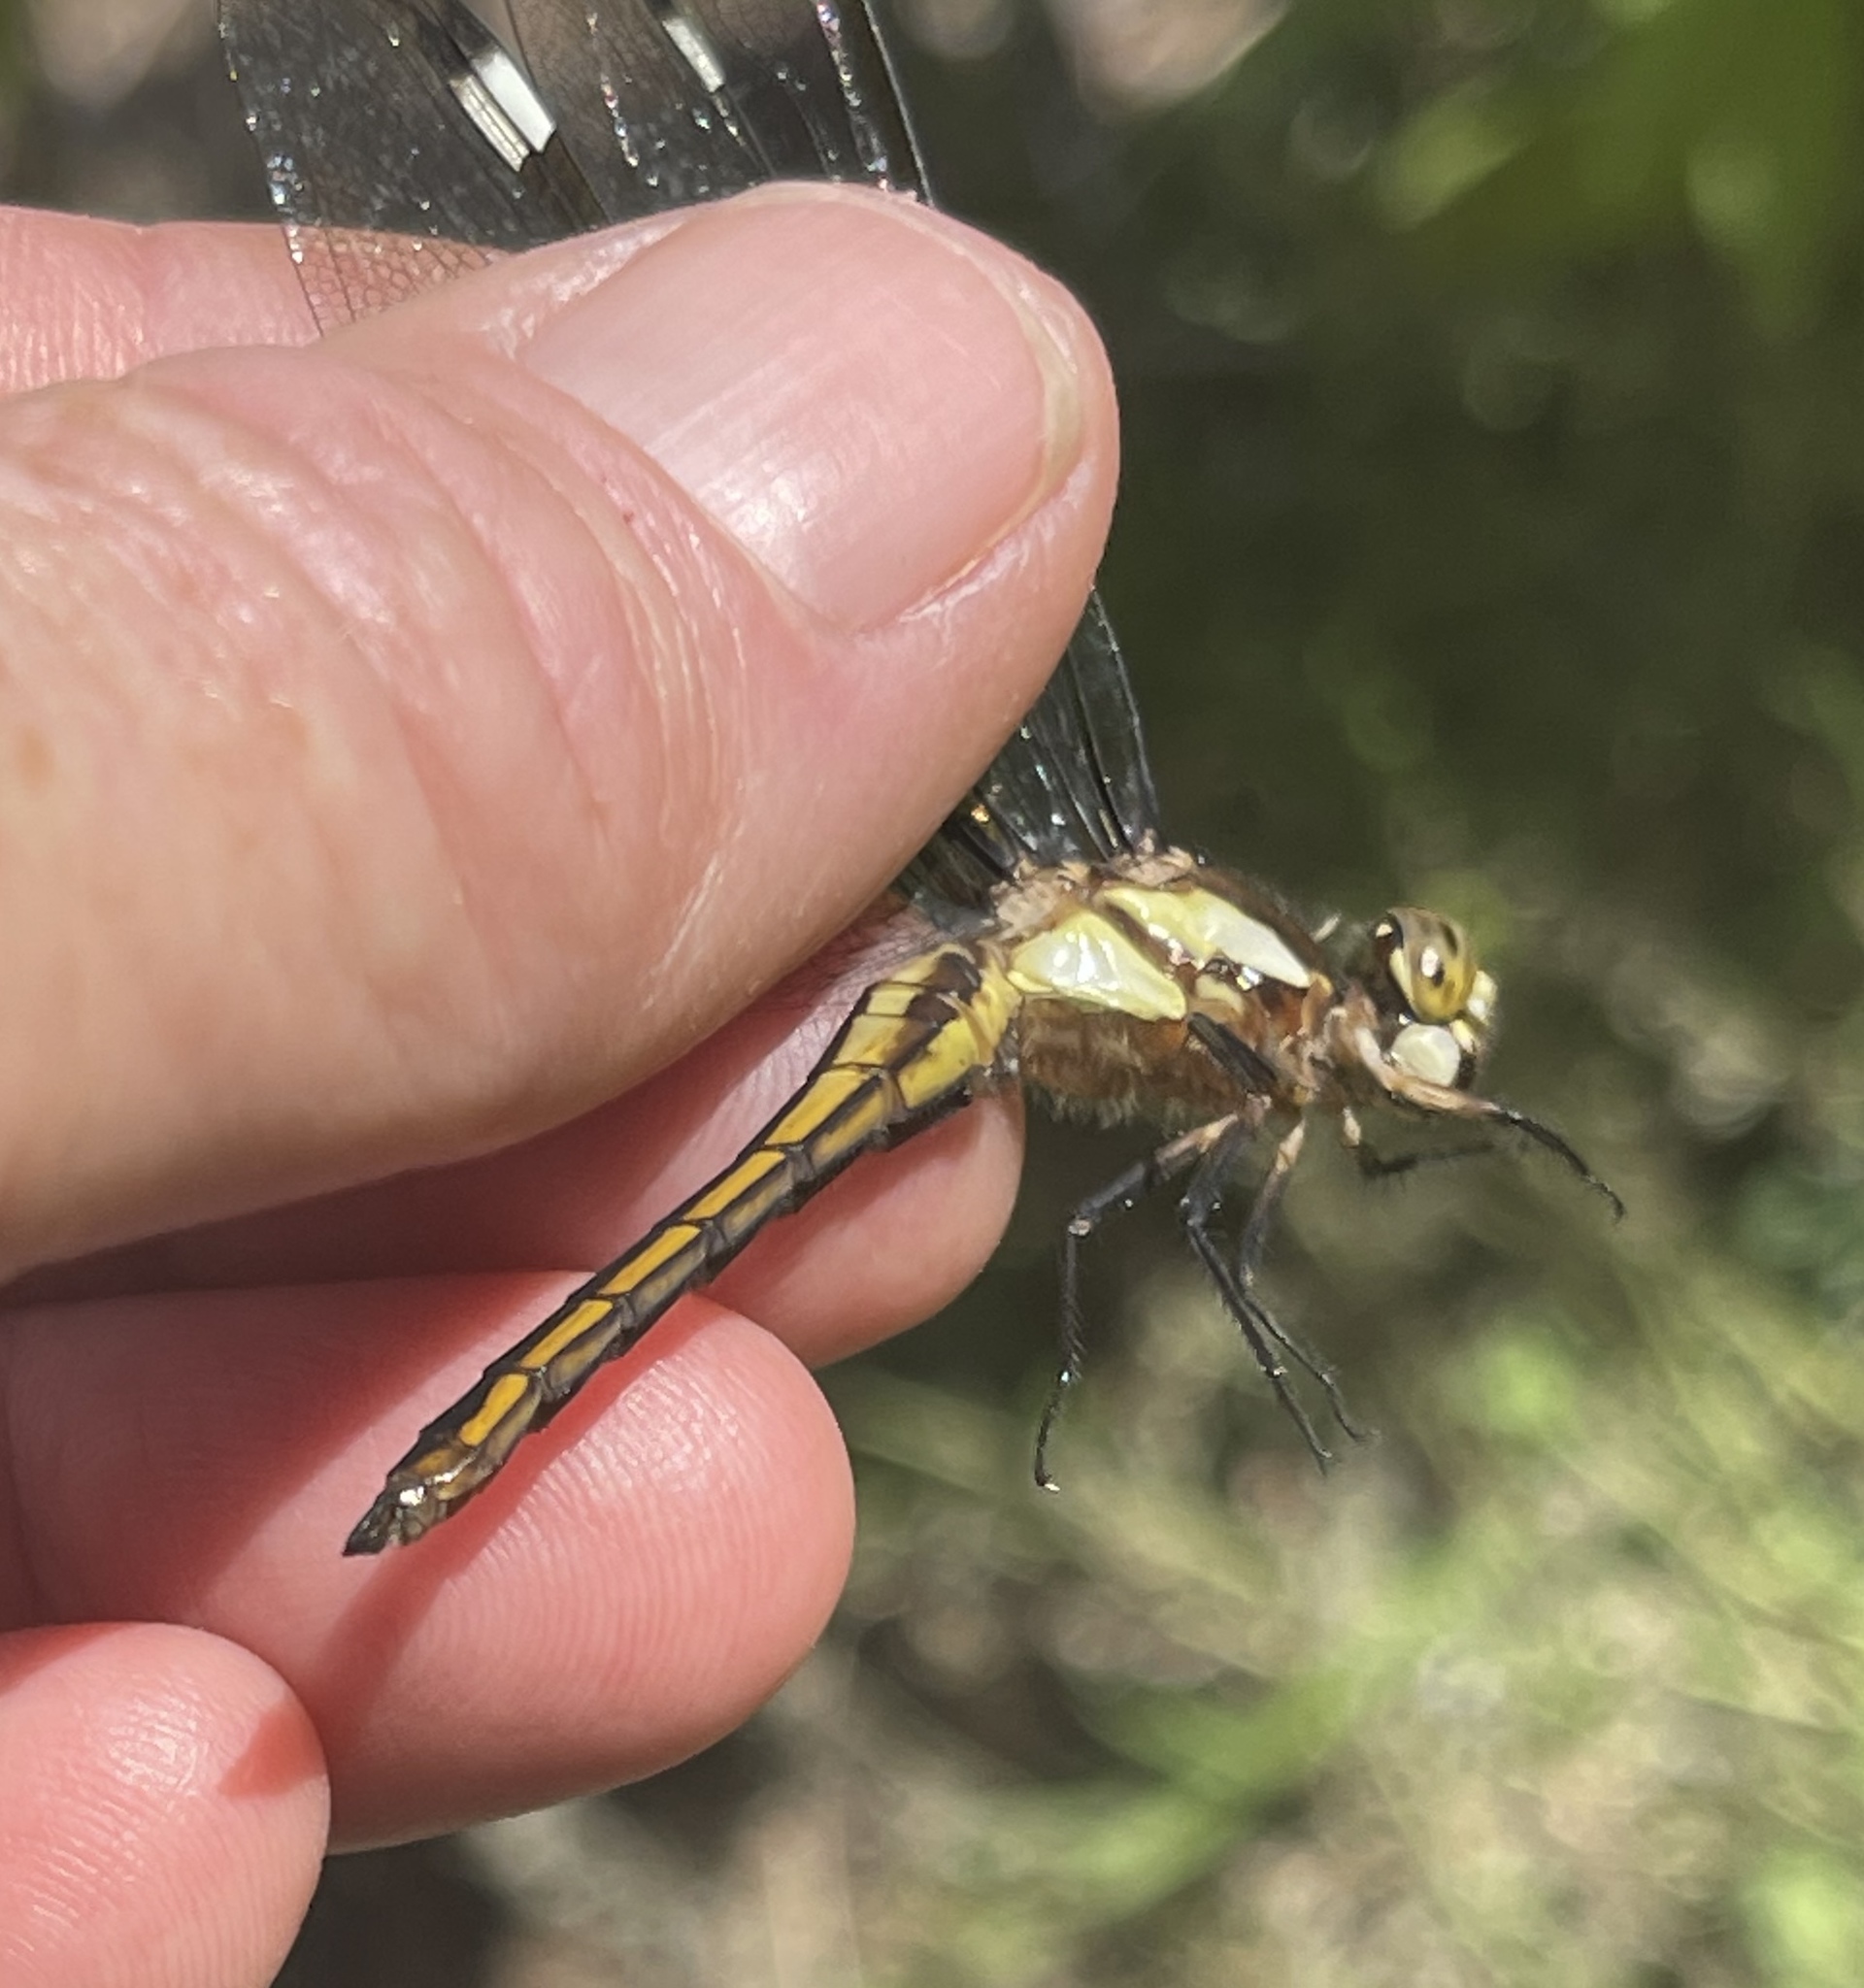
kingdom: Animalia
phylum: Arthropoda
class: Insecta
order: Odonata
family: Libellulidae
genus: Libellula
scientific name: Libellula cyanea
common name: Spangled skimmer
